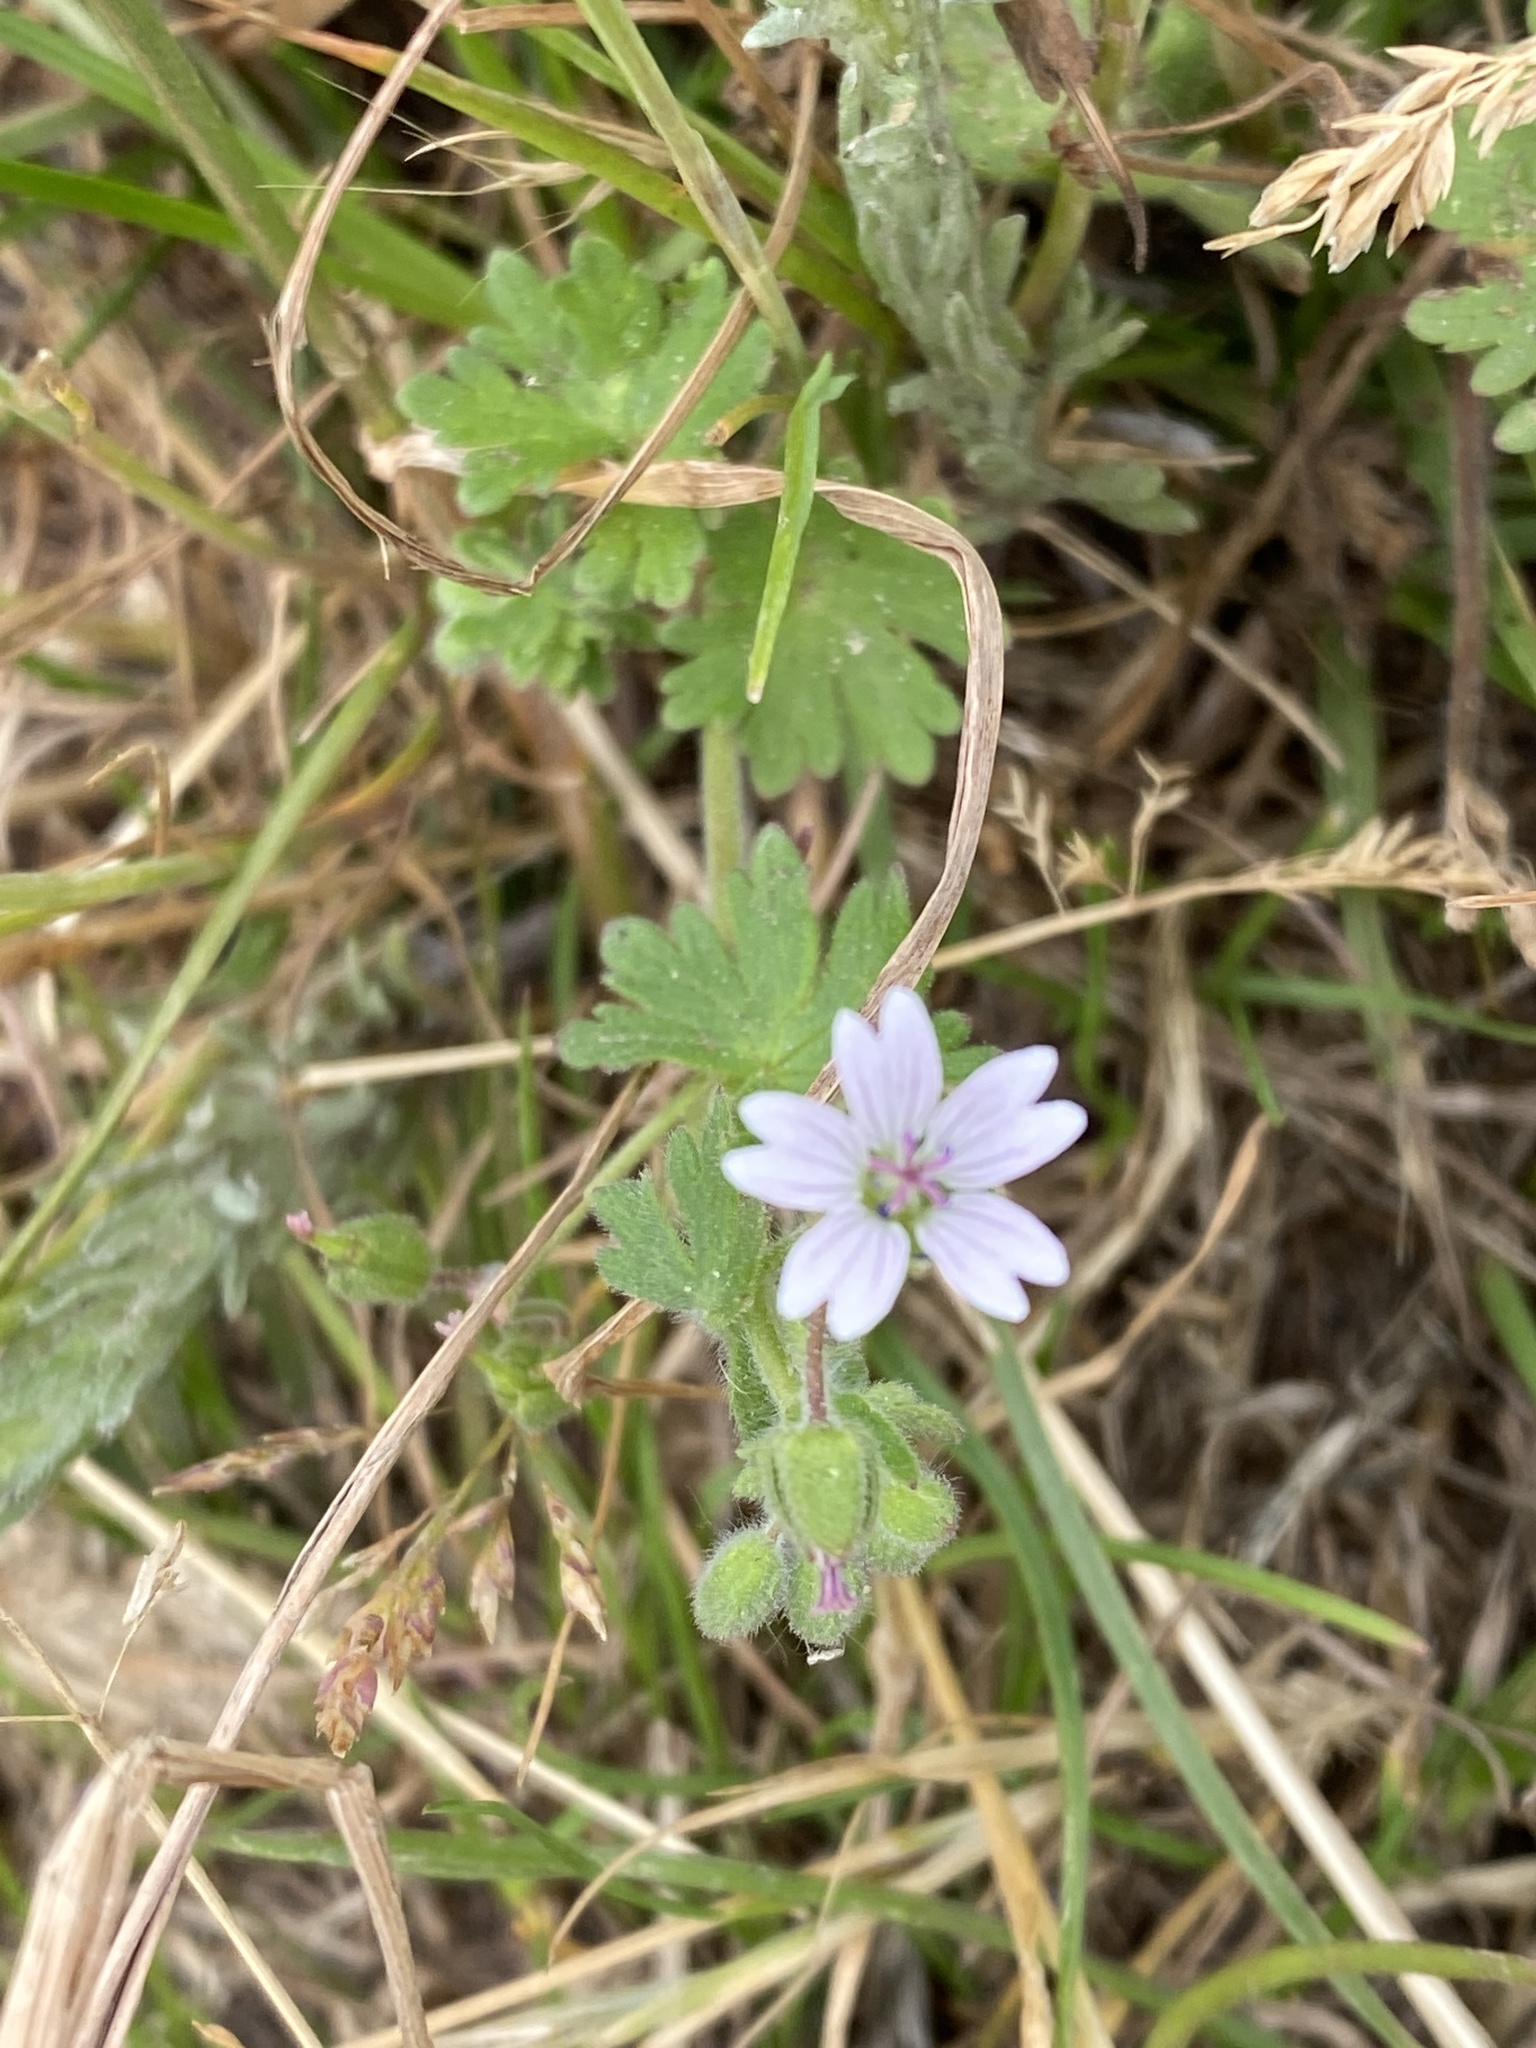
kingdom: Plantae
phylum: Tracheophyta
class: Magnoliopsida
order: Geraniales
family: Geraniaceae
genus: Geranium
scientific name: Geranium molle
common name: Dove's-foot crane's-bill
